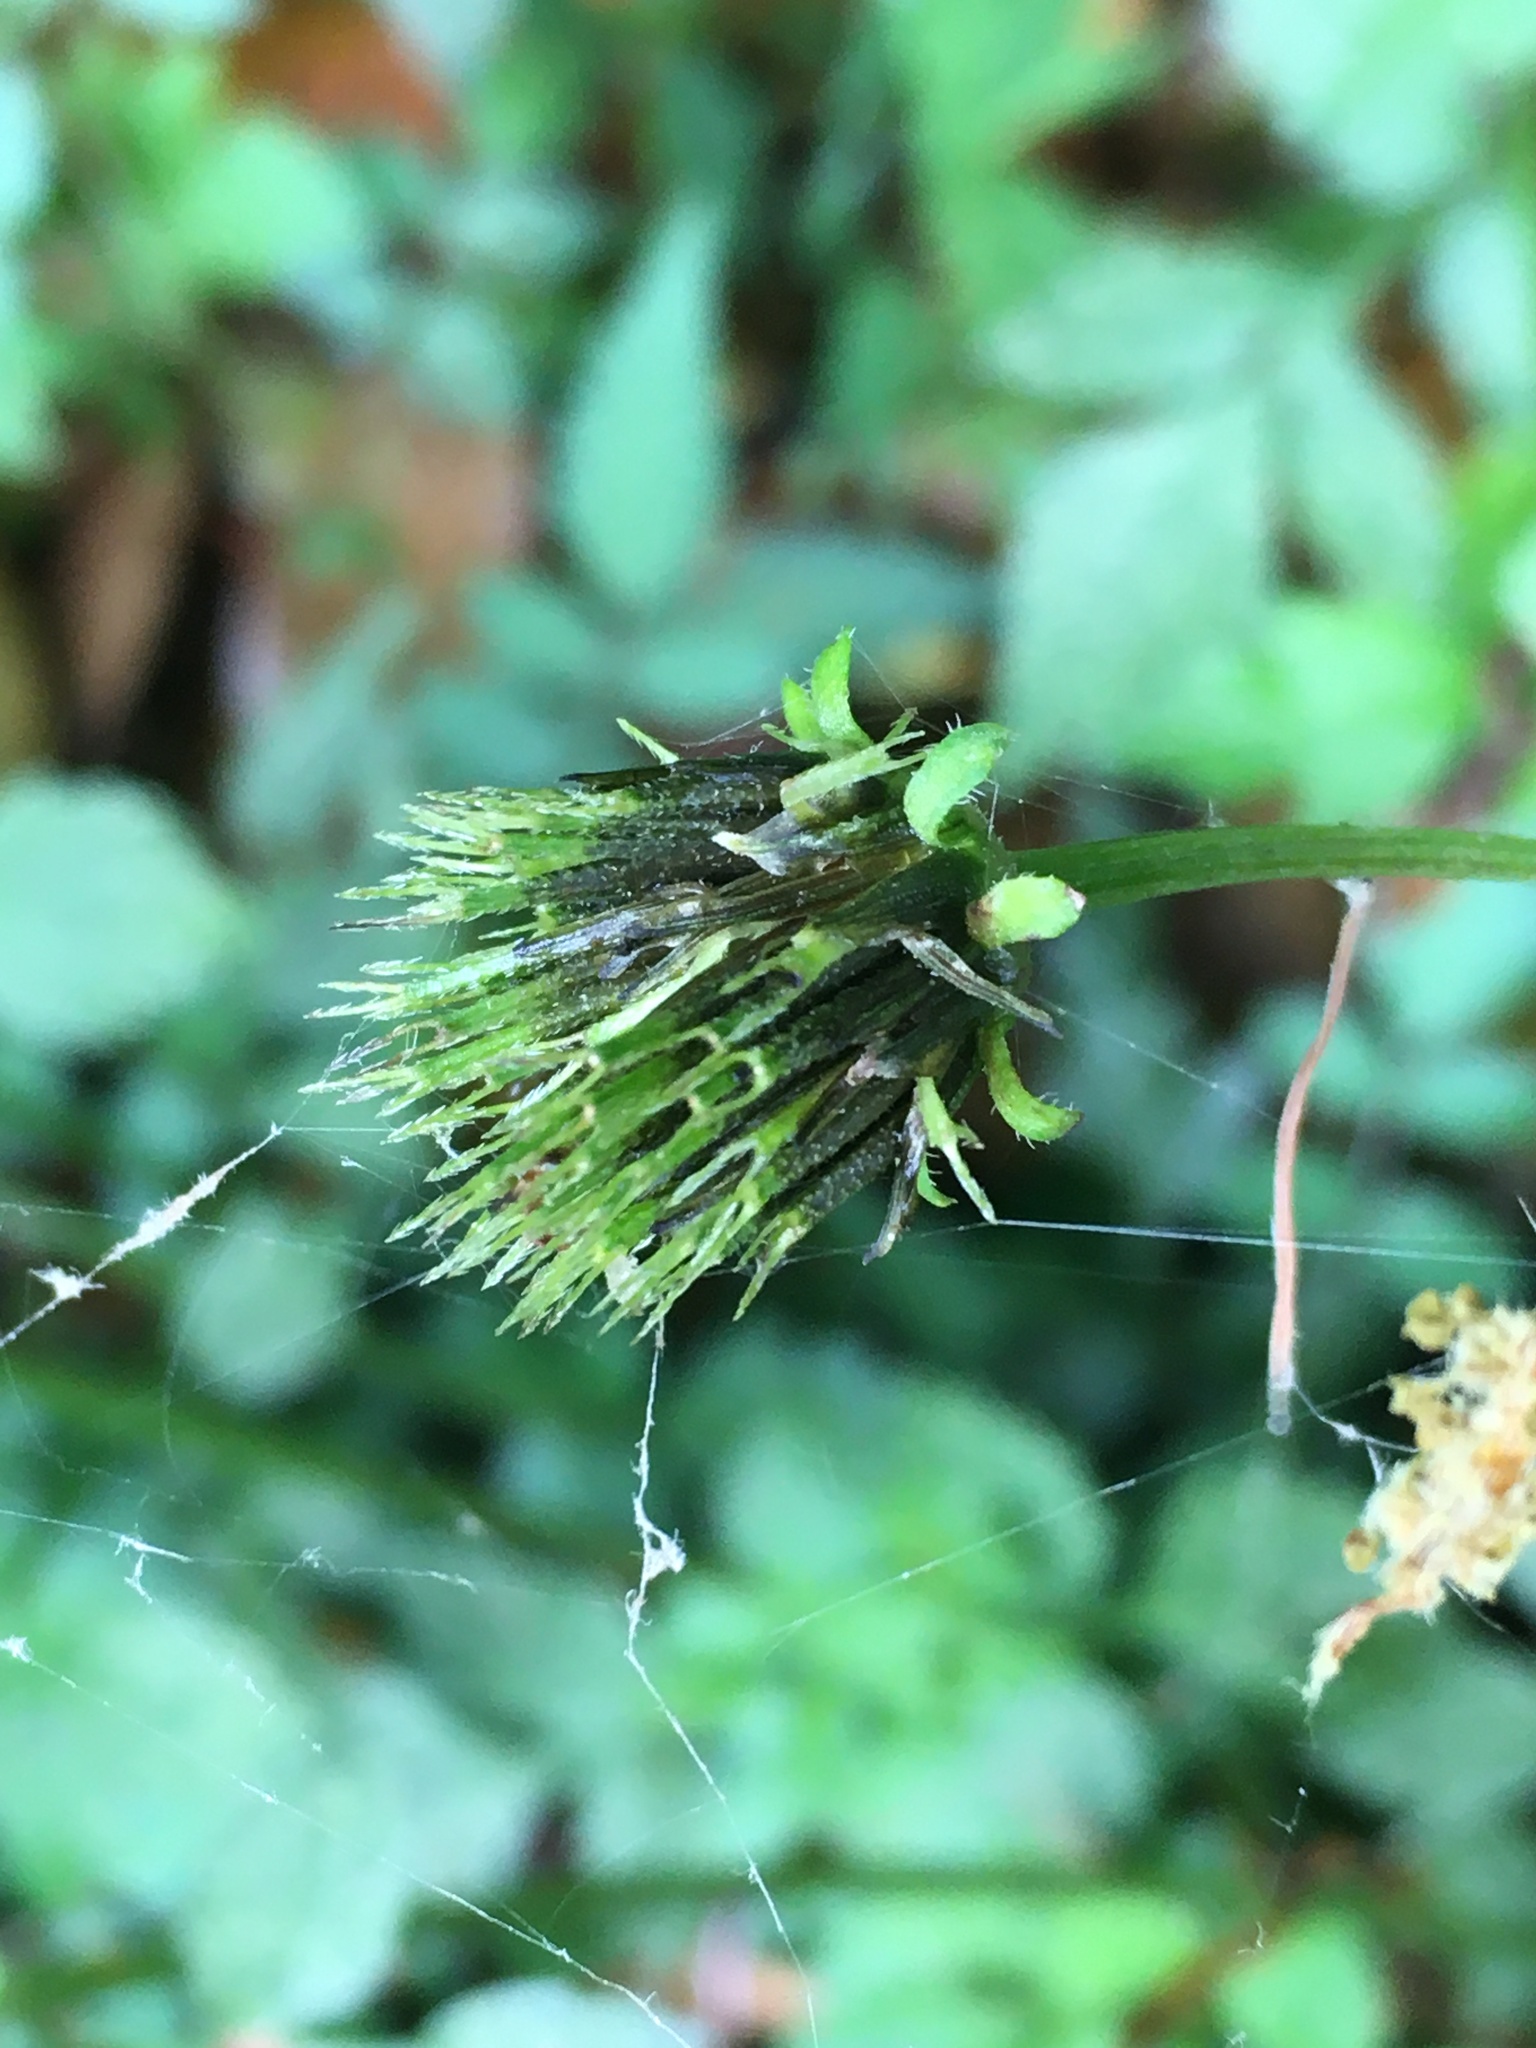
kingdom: Plantae
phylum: Tracheophyta
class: Magnoliopsida
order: Asterales
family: Asteraceae
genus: Bidens
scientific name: Bidens pilosa
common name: Black-jack
